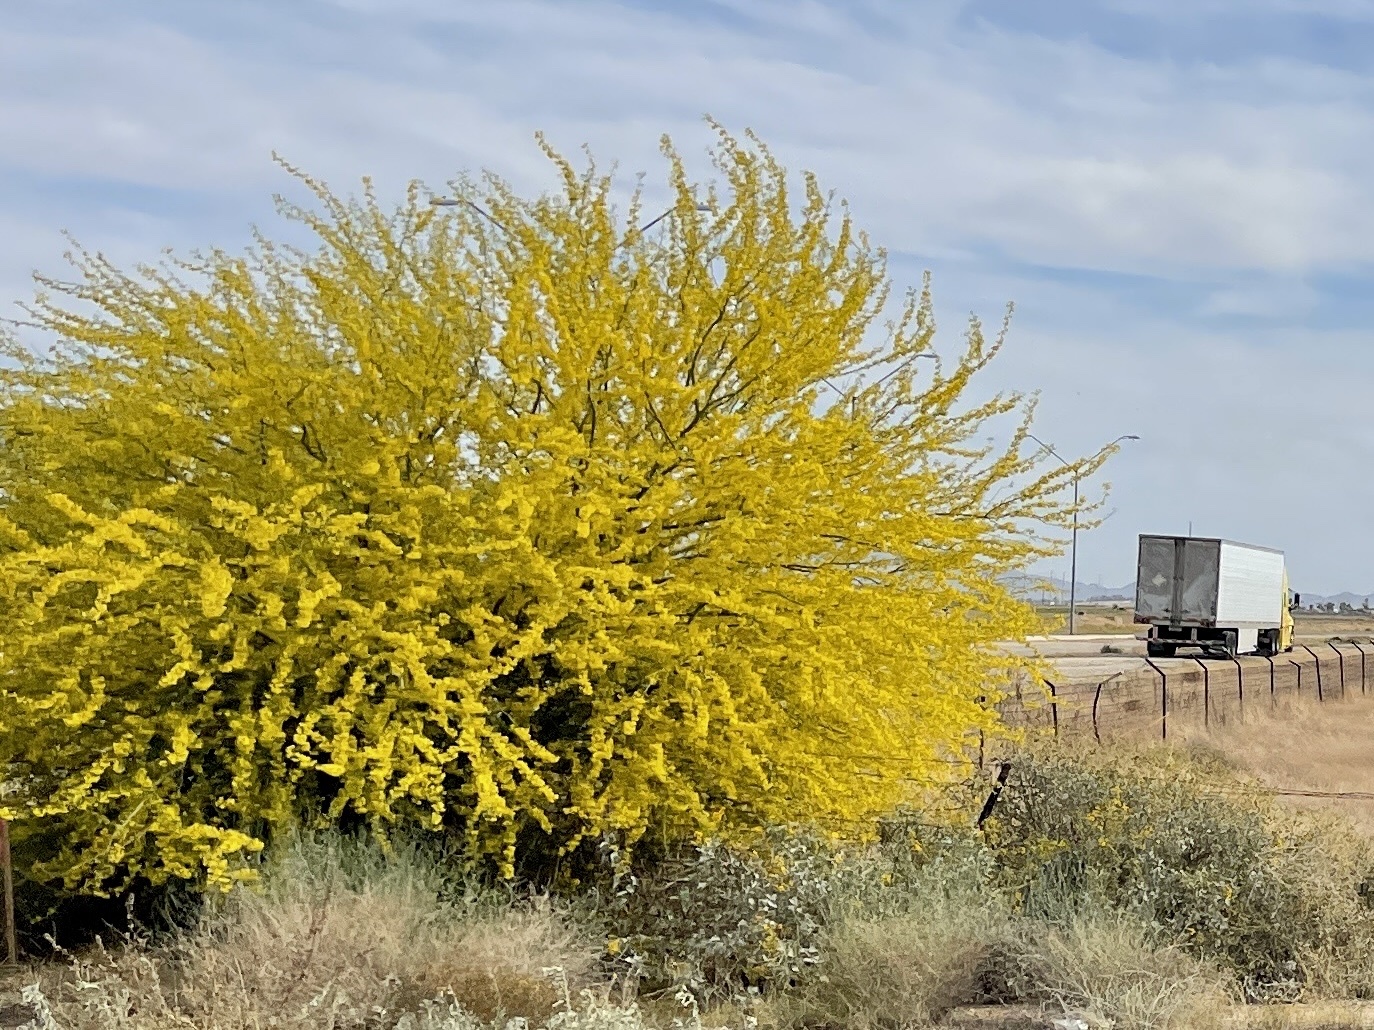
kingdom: Plantae
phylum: Tracheophyta
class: Magnoliopsida
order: Fabales
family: Fabaceae
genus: Parkinsonia
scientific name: Parkinsonia microphylla
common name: Yellow paloverde
